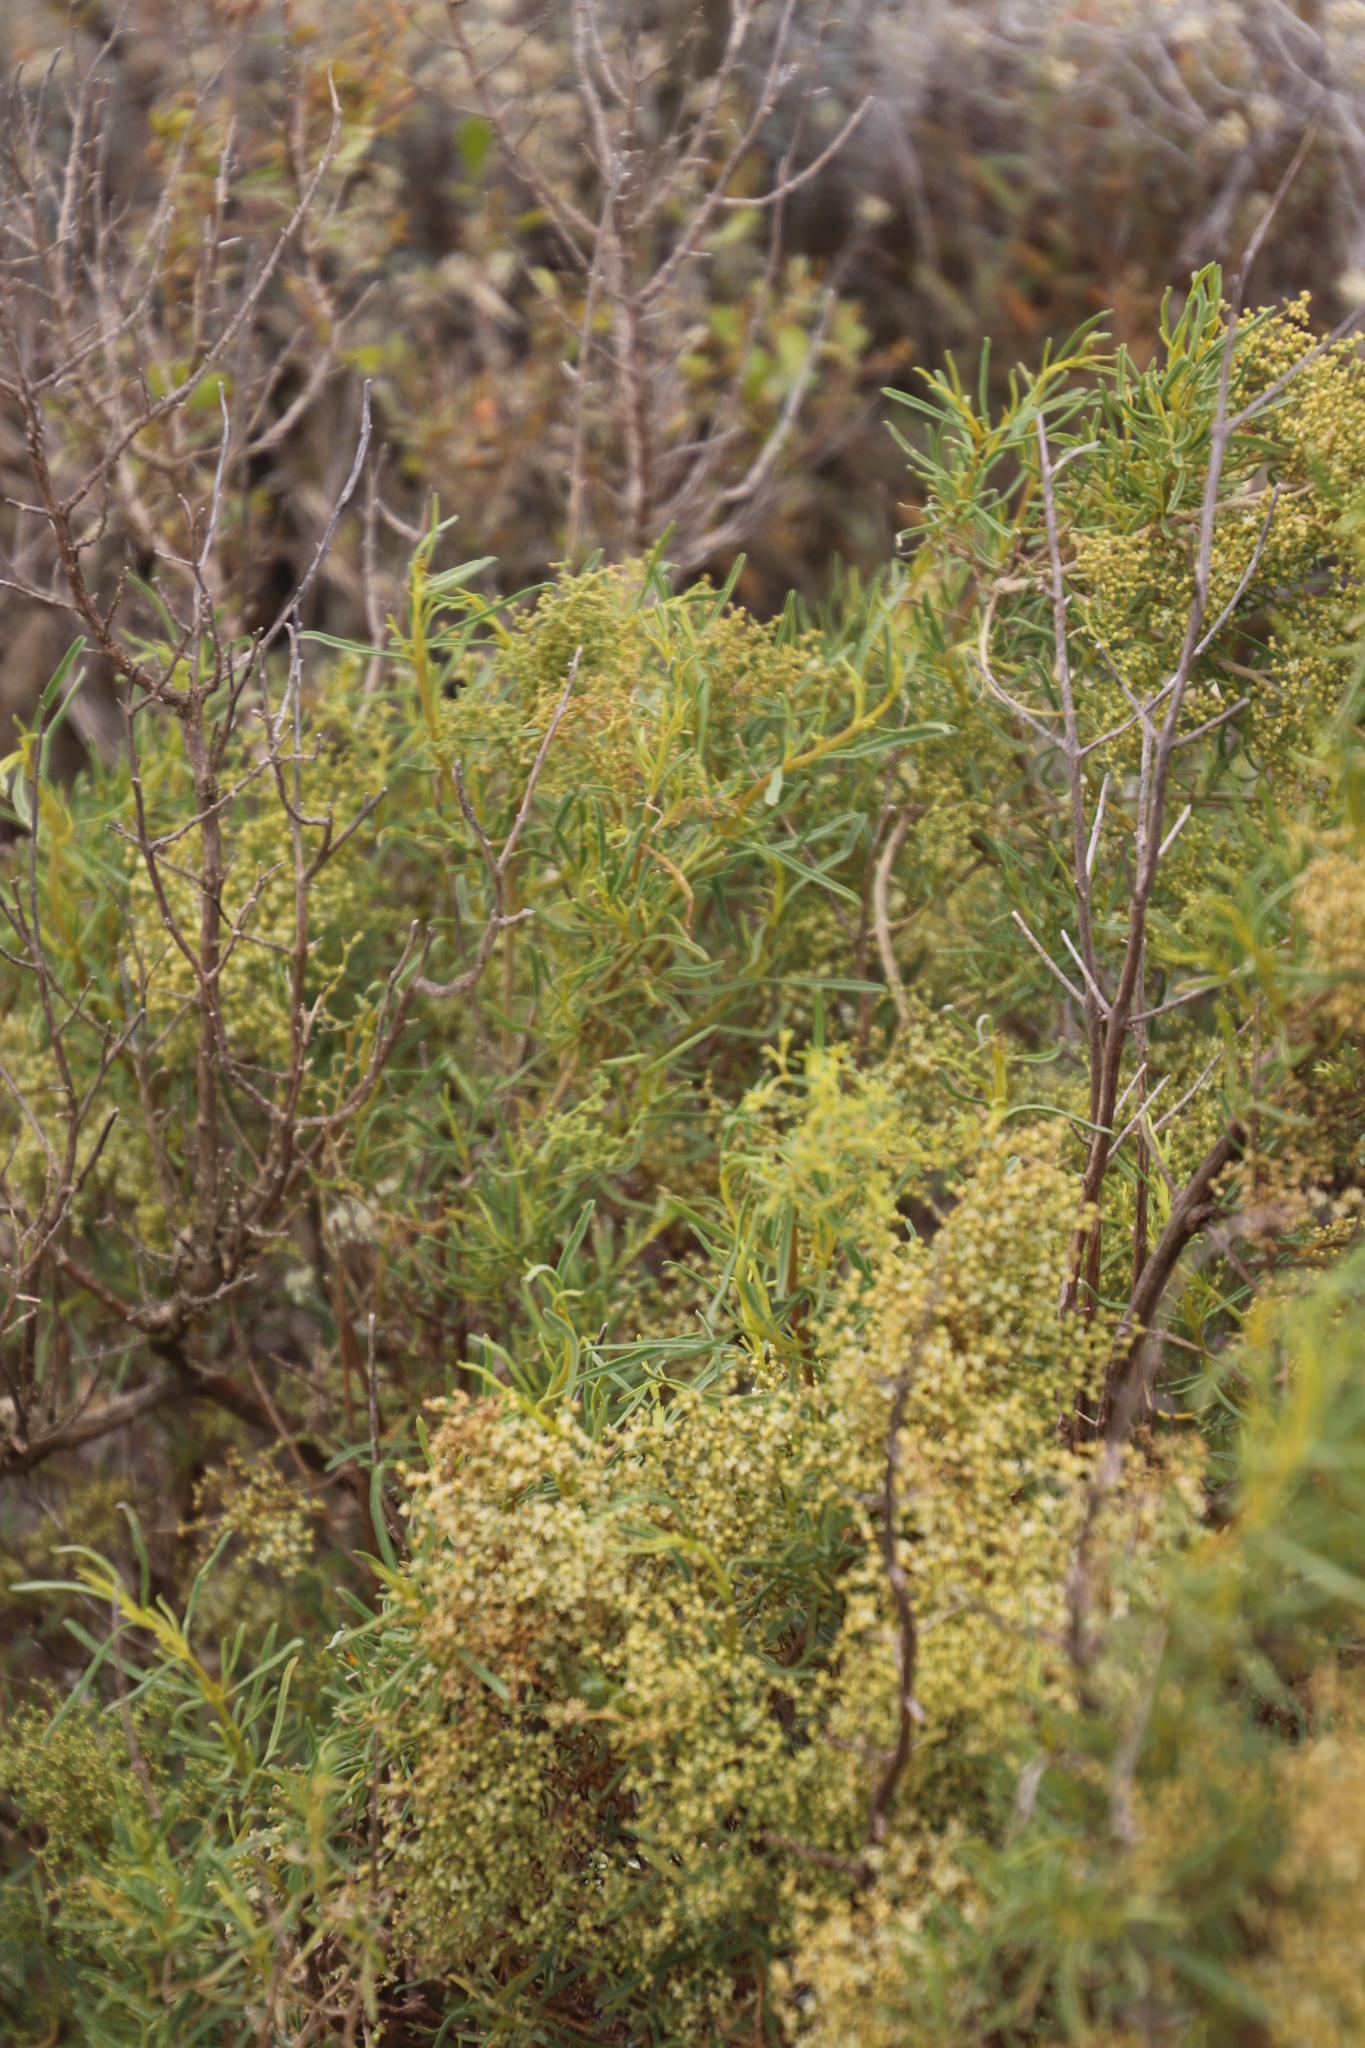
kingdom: Plantae
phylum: Tracheophyta
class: Magnoliopsida
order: Caryophyllales
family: Aizoaceae
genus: Aizoon
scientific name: Aizoon africanum
